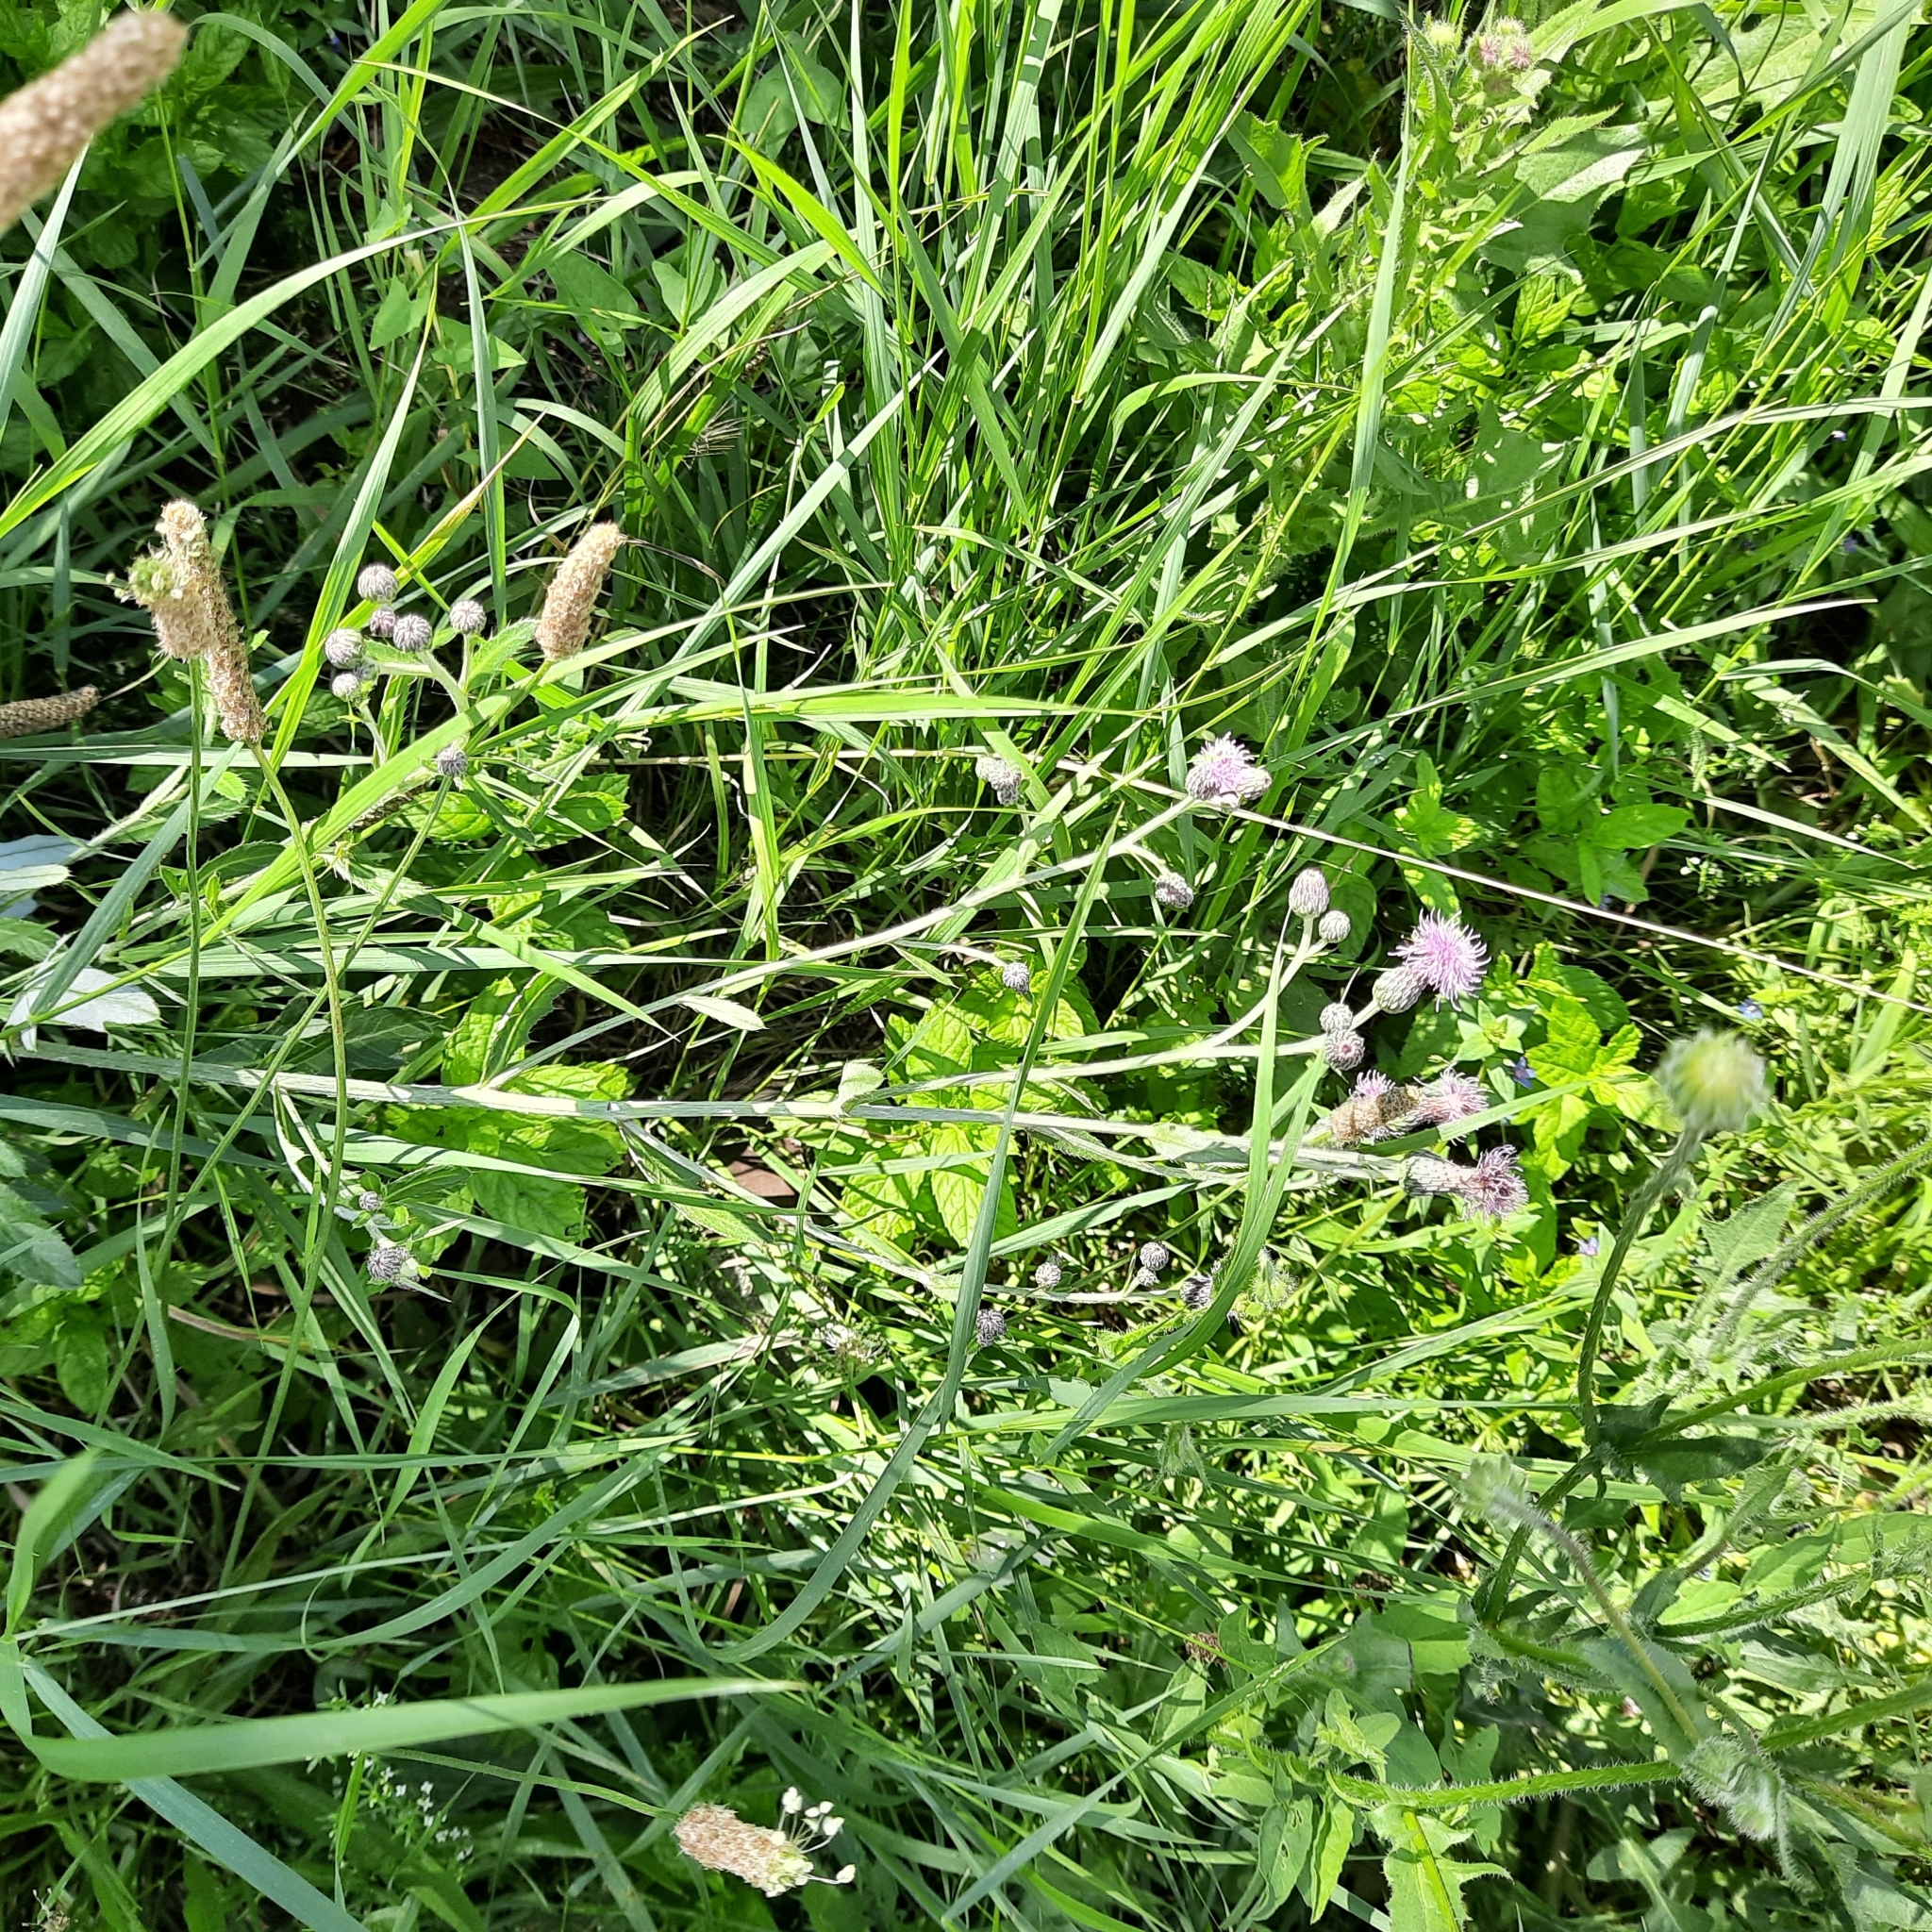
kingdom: Plantae
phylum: Tracheophyta
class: Magnoliopsida
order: Asterales
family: Asteraceae
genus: Cirsium
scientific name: Cirsium arvense
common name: Creeping thistle
